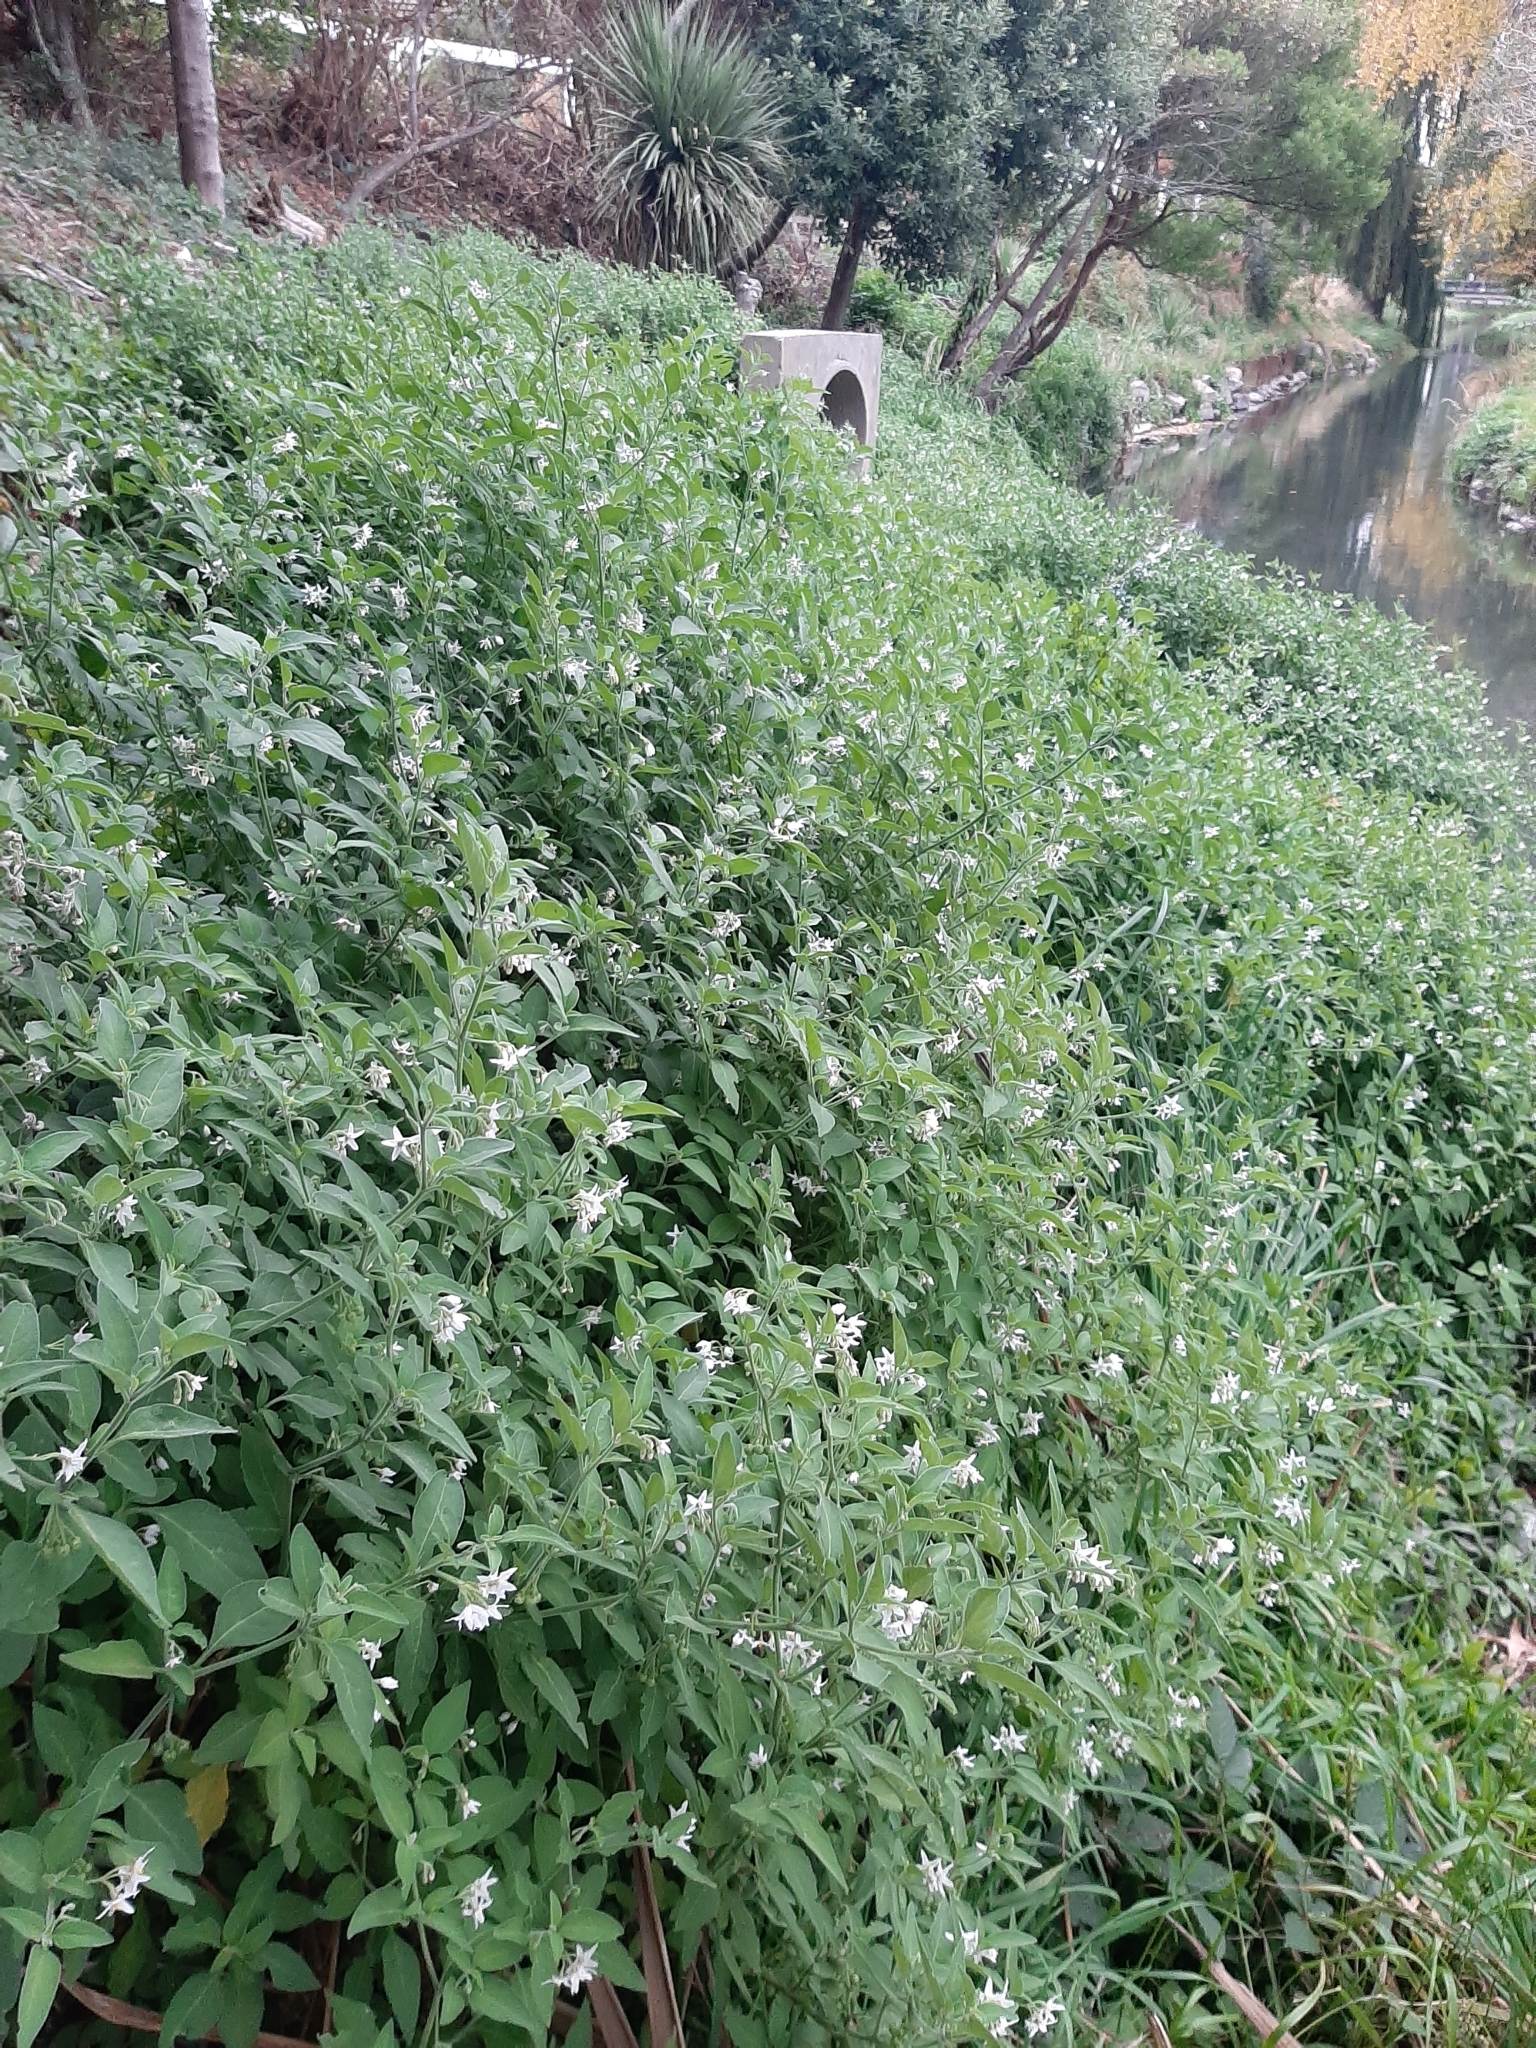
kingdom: Plantae
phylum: Tracheophyta
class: Magnoliopsida
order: Solanales
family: Solanaceae
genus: Solanum
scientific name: Solanum chenopodioides
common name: Tall nightshade
